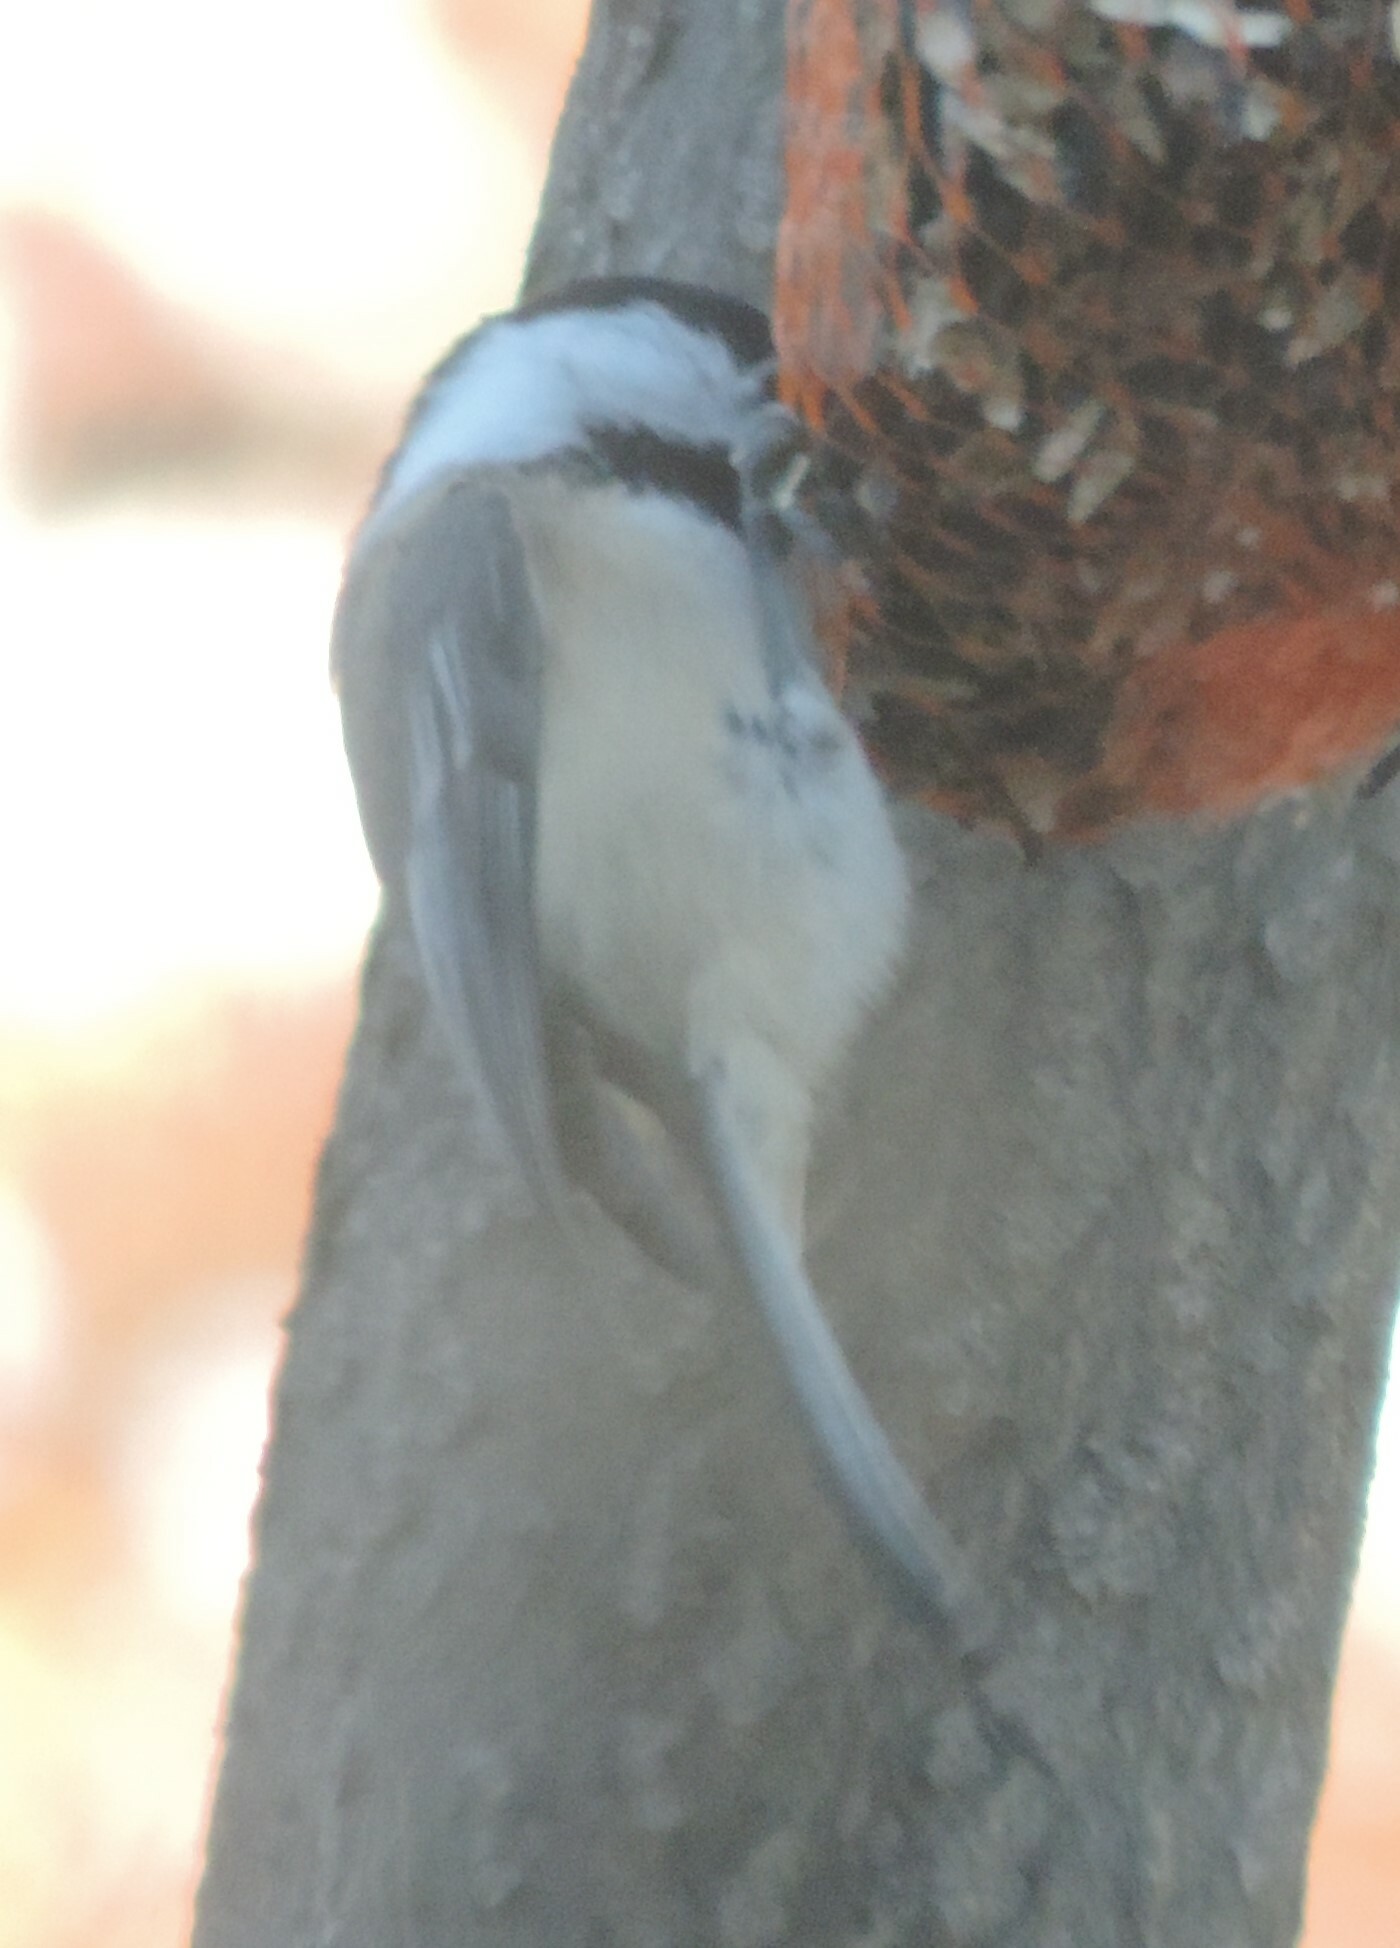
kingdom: Animalia
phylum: Chordata
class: Aves
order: Passeriformes
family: Paridae
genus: Poecile
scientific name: Poecile atricapillus
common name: Black-capped chickadee
